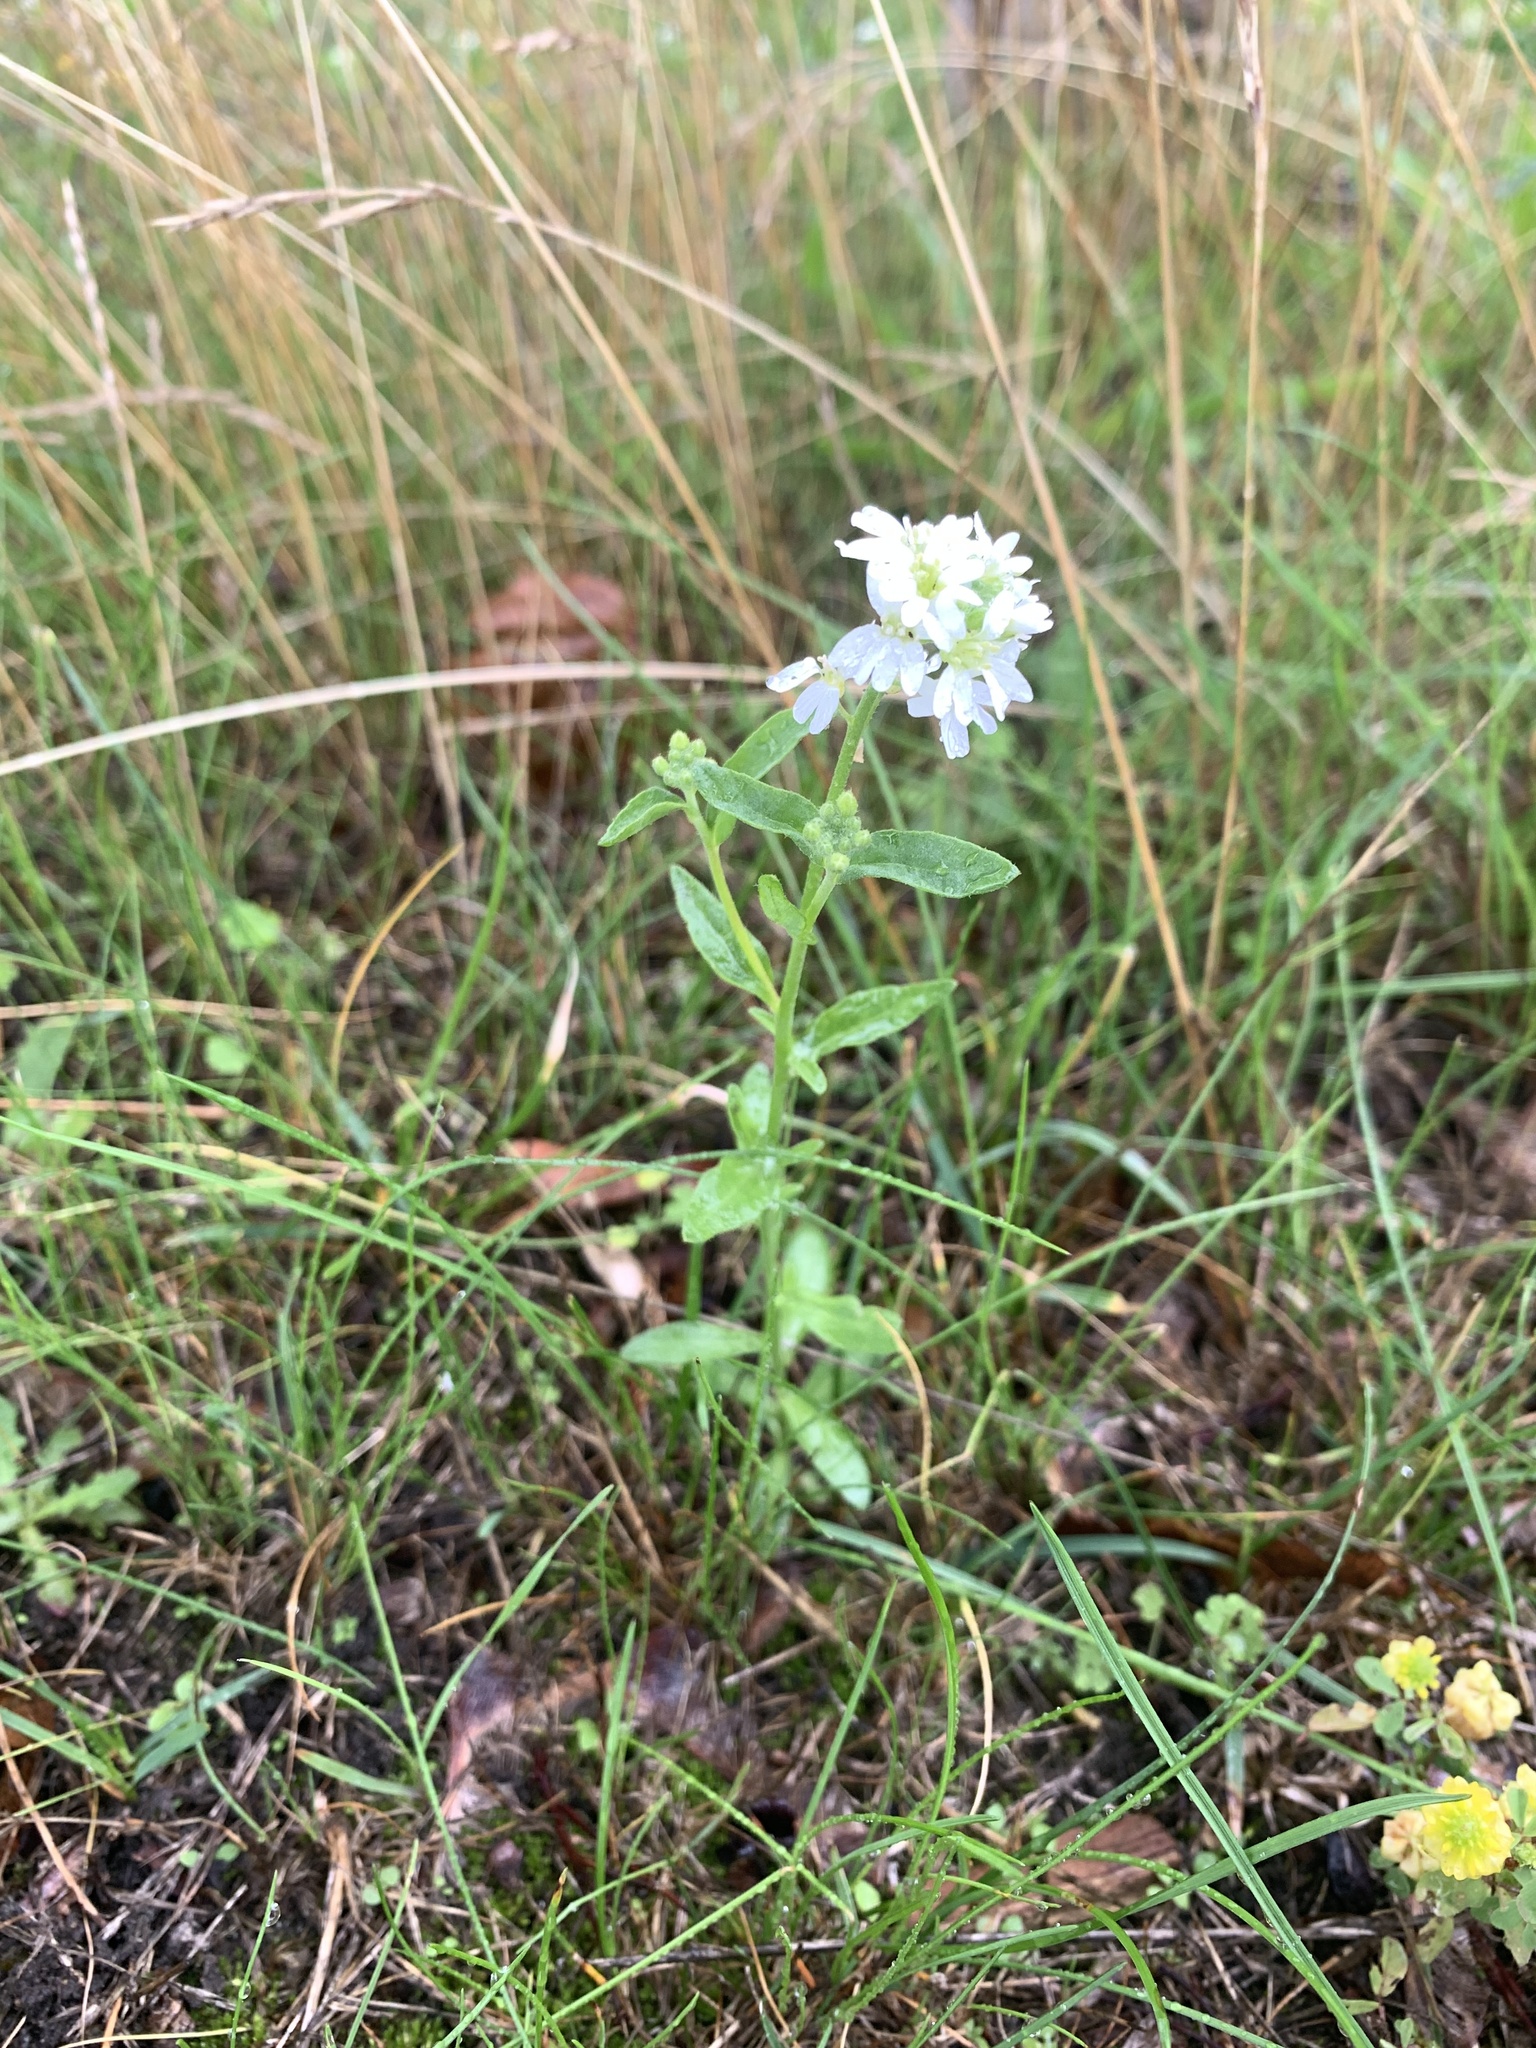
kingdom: Plantae
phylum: Tracheophyta
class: Magnoliopsida
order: Brassicales
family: Brassicaceae
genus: Berteroa
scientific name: Berteroa incana
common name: Hoary alison
